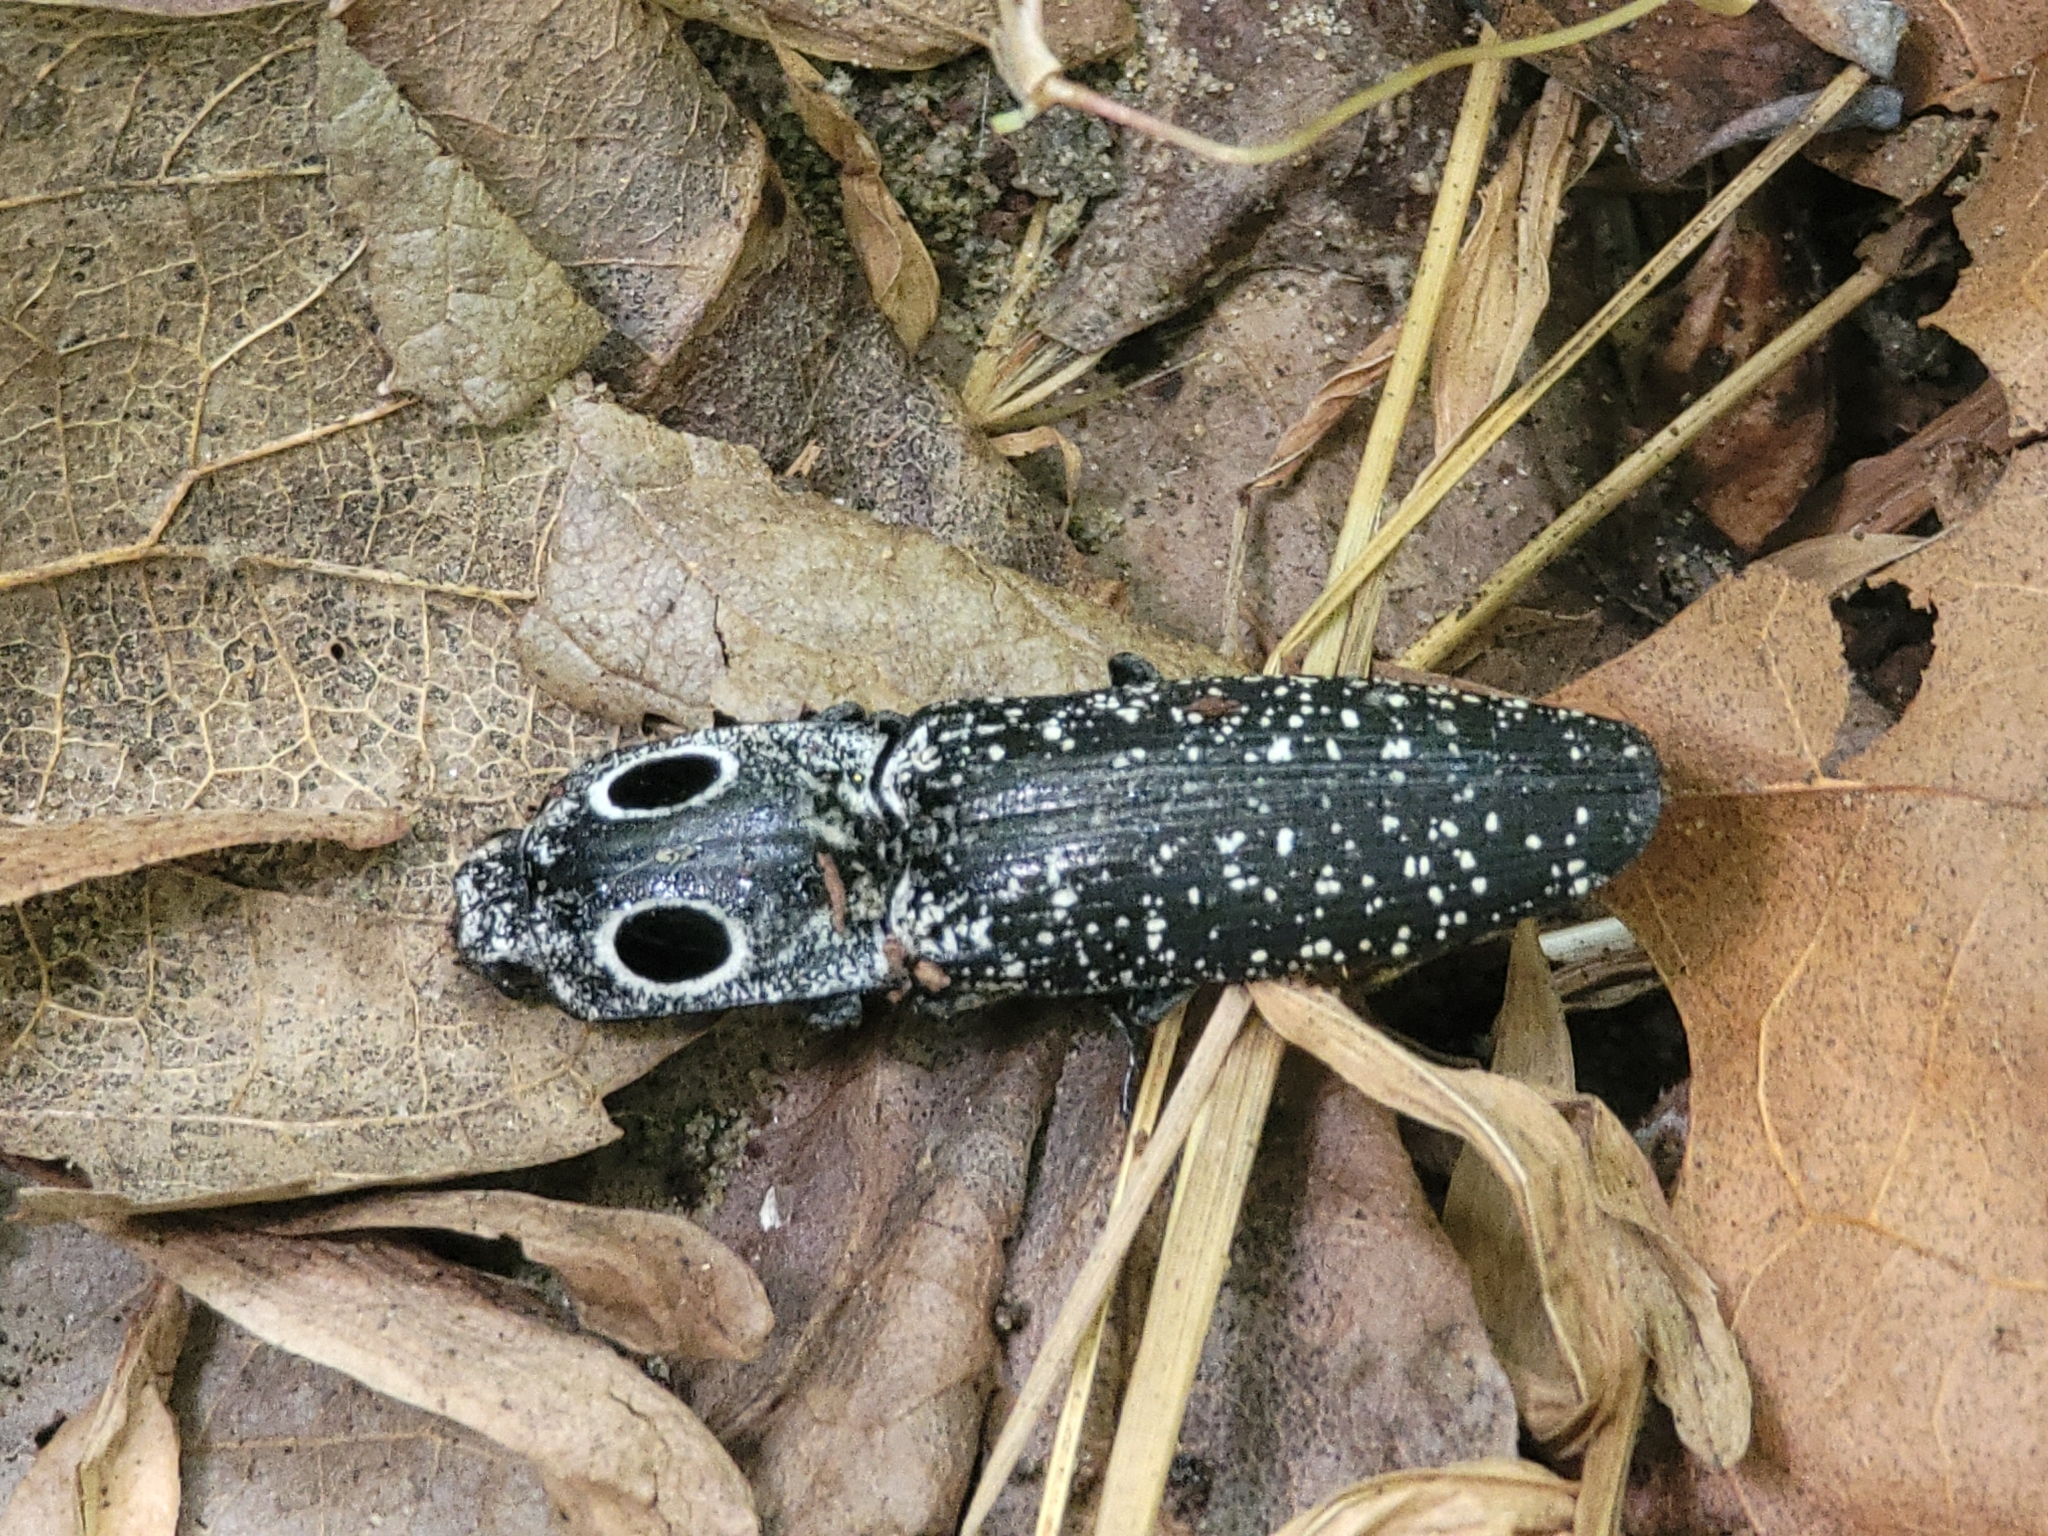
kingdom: Animalia
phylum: Arthropoda
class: Insecta
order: Coleoptera
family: Elateridae
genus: Alaus
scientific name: Alaus oculatus
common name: Eastern eyed click beetle
